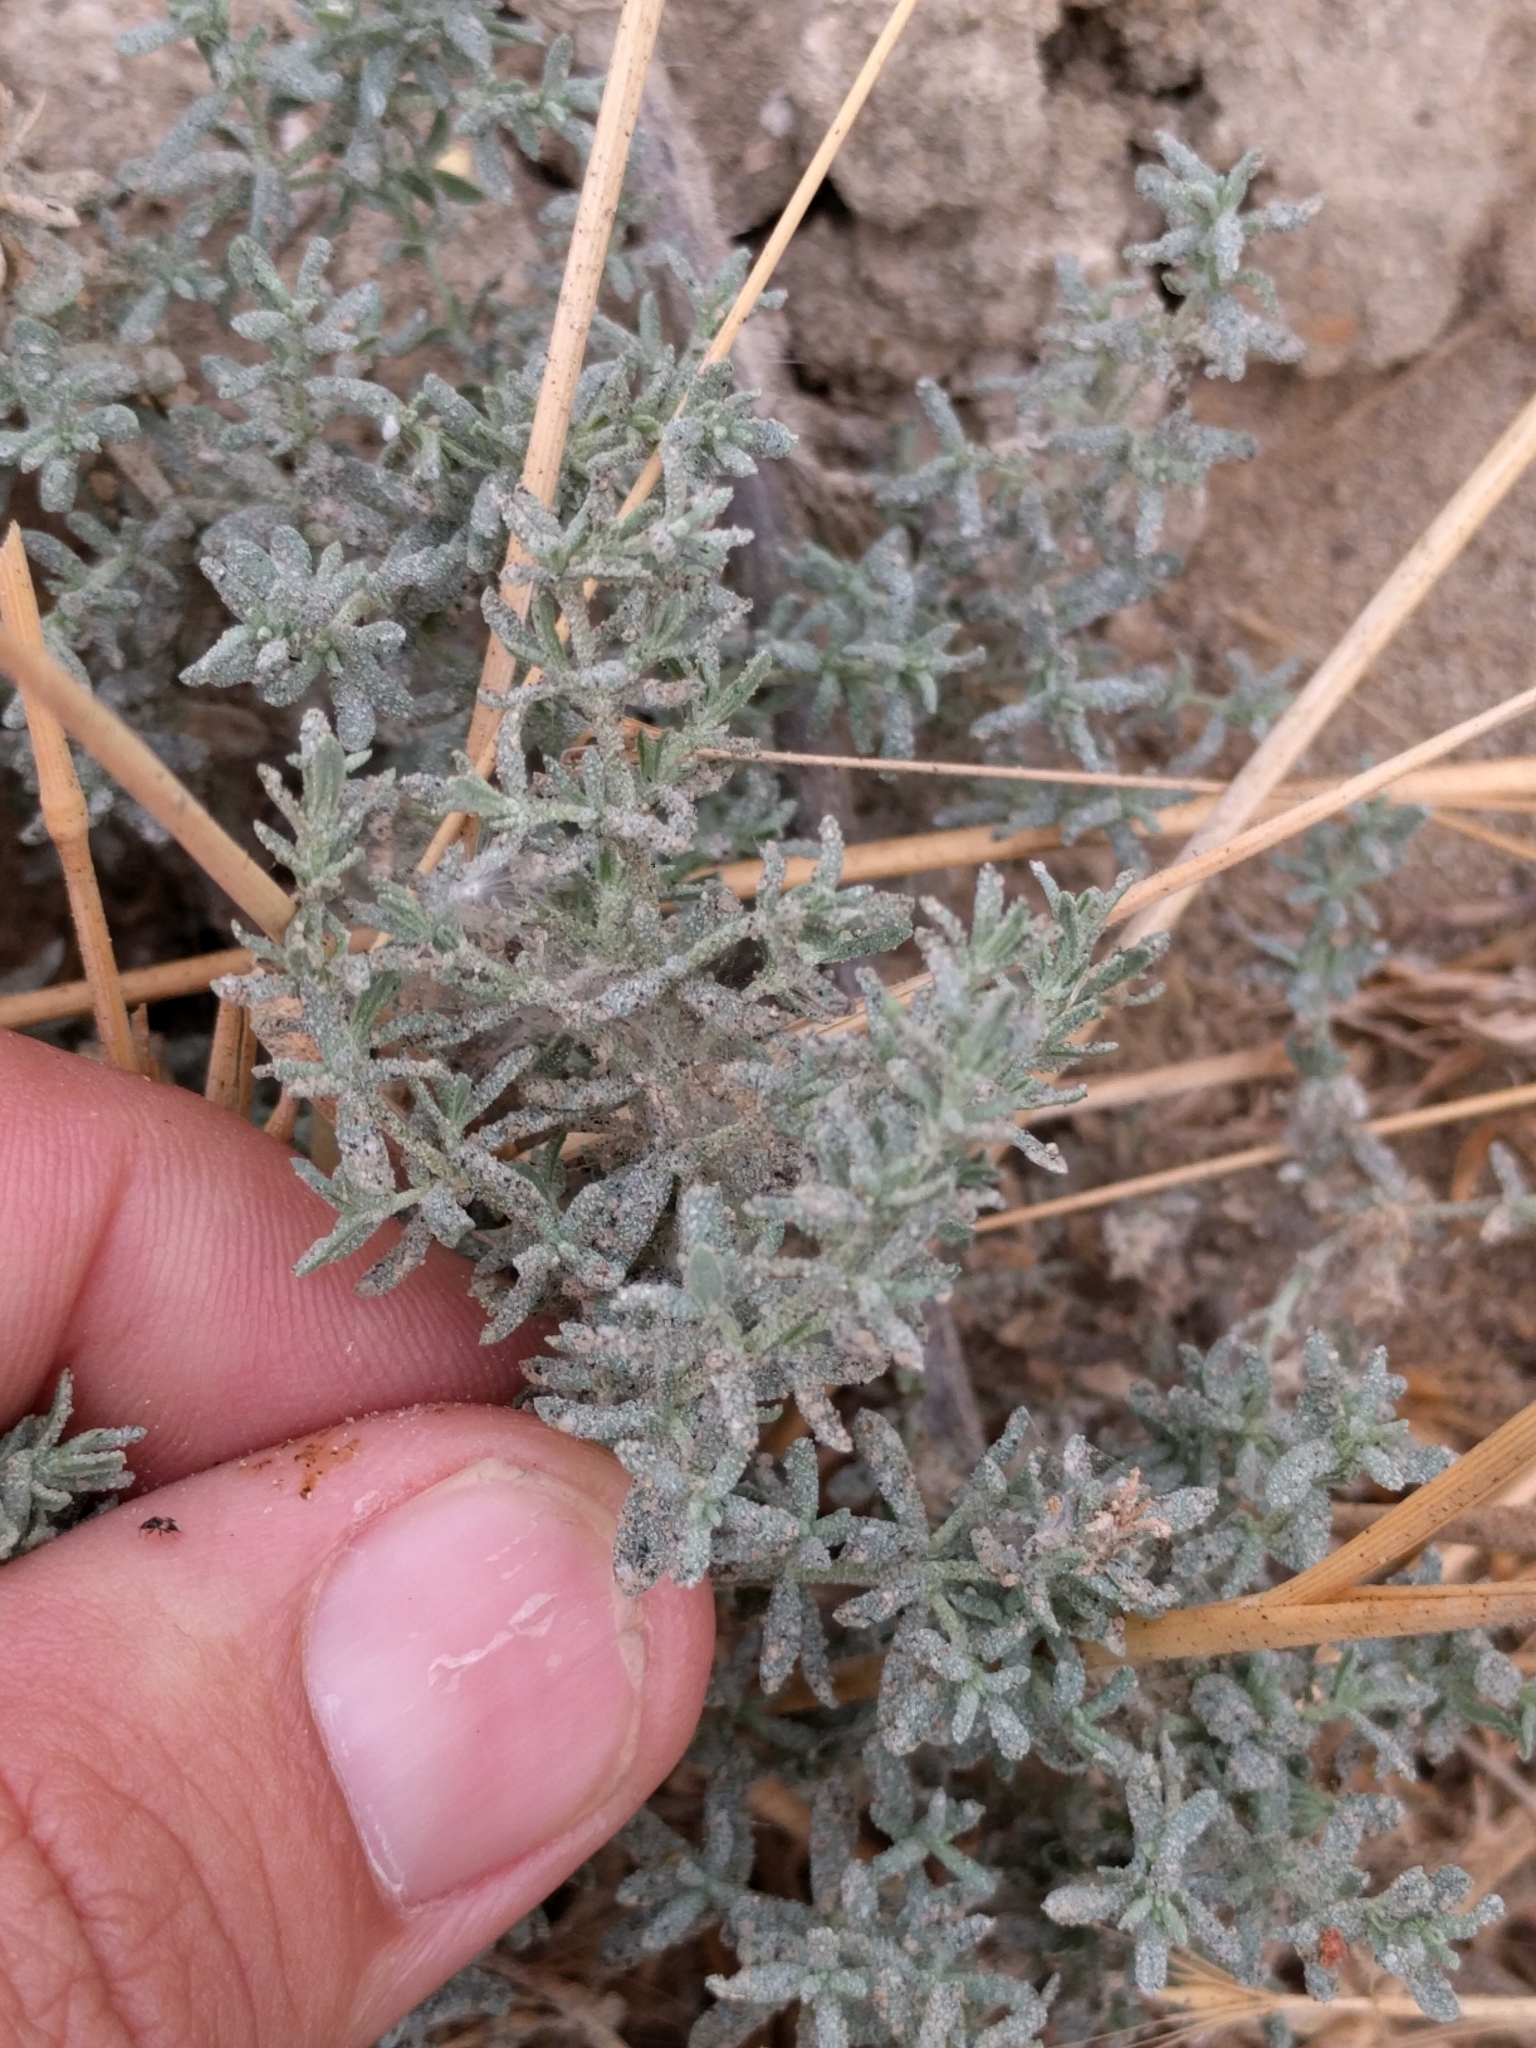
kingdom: Plantae
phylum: Tracheophyta
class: Magnoliopsida
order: Caryophyllales
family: Frankeniaceae
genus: Frankenia
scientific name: Frankenia salina
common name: Alkali seaheath
